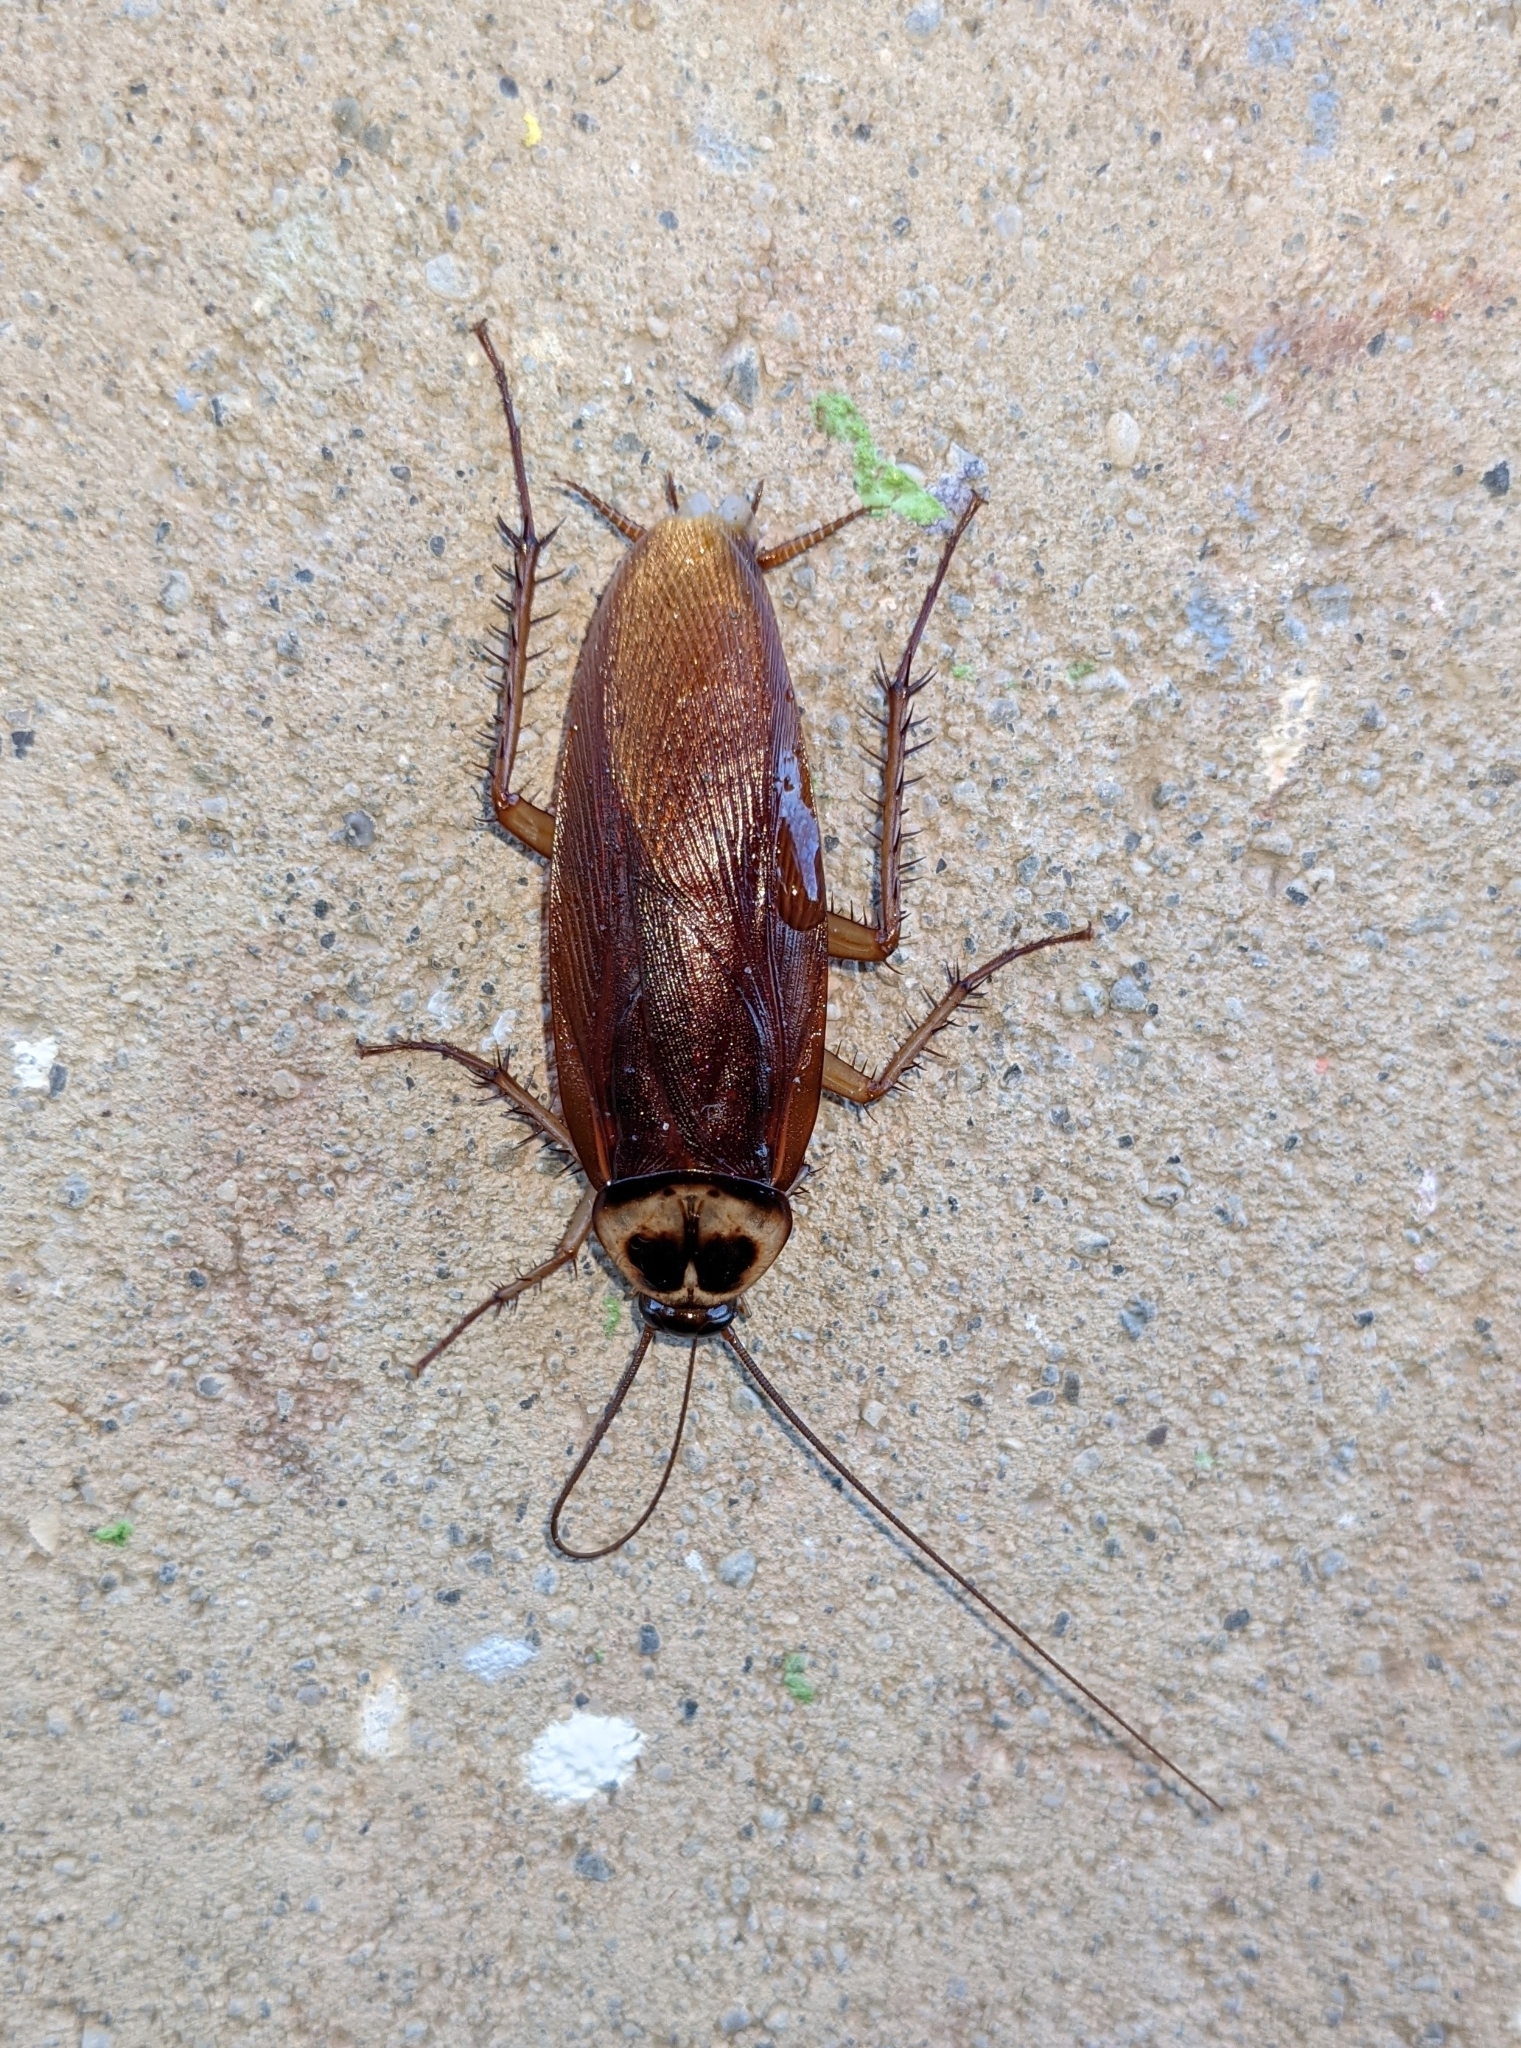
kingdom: Animalia
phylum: Arthropoda
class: Insecta
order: Blattodea
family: Blattidae
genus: Periplaneta
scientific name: Periplaneta americana
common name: American cockroach
